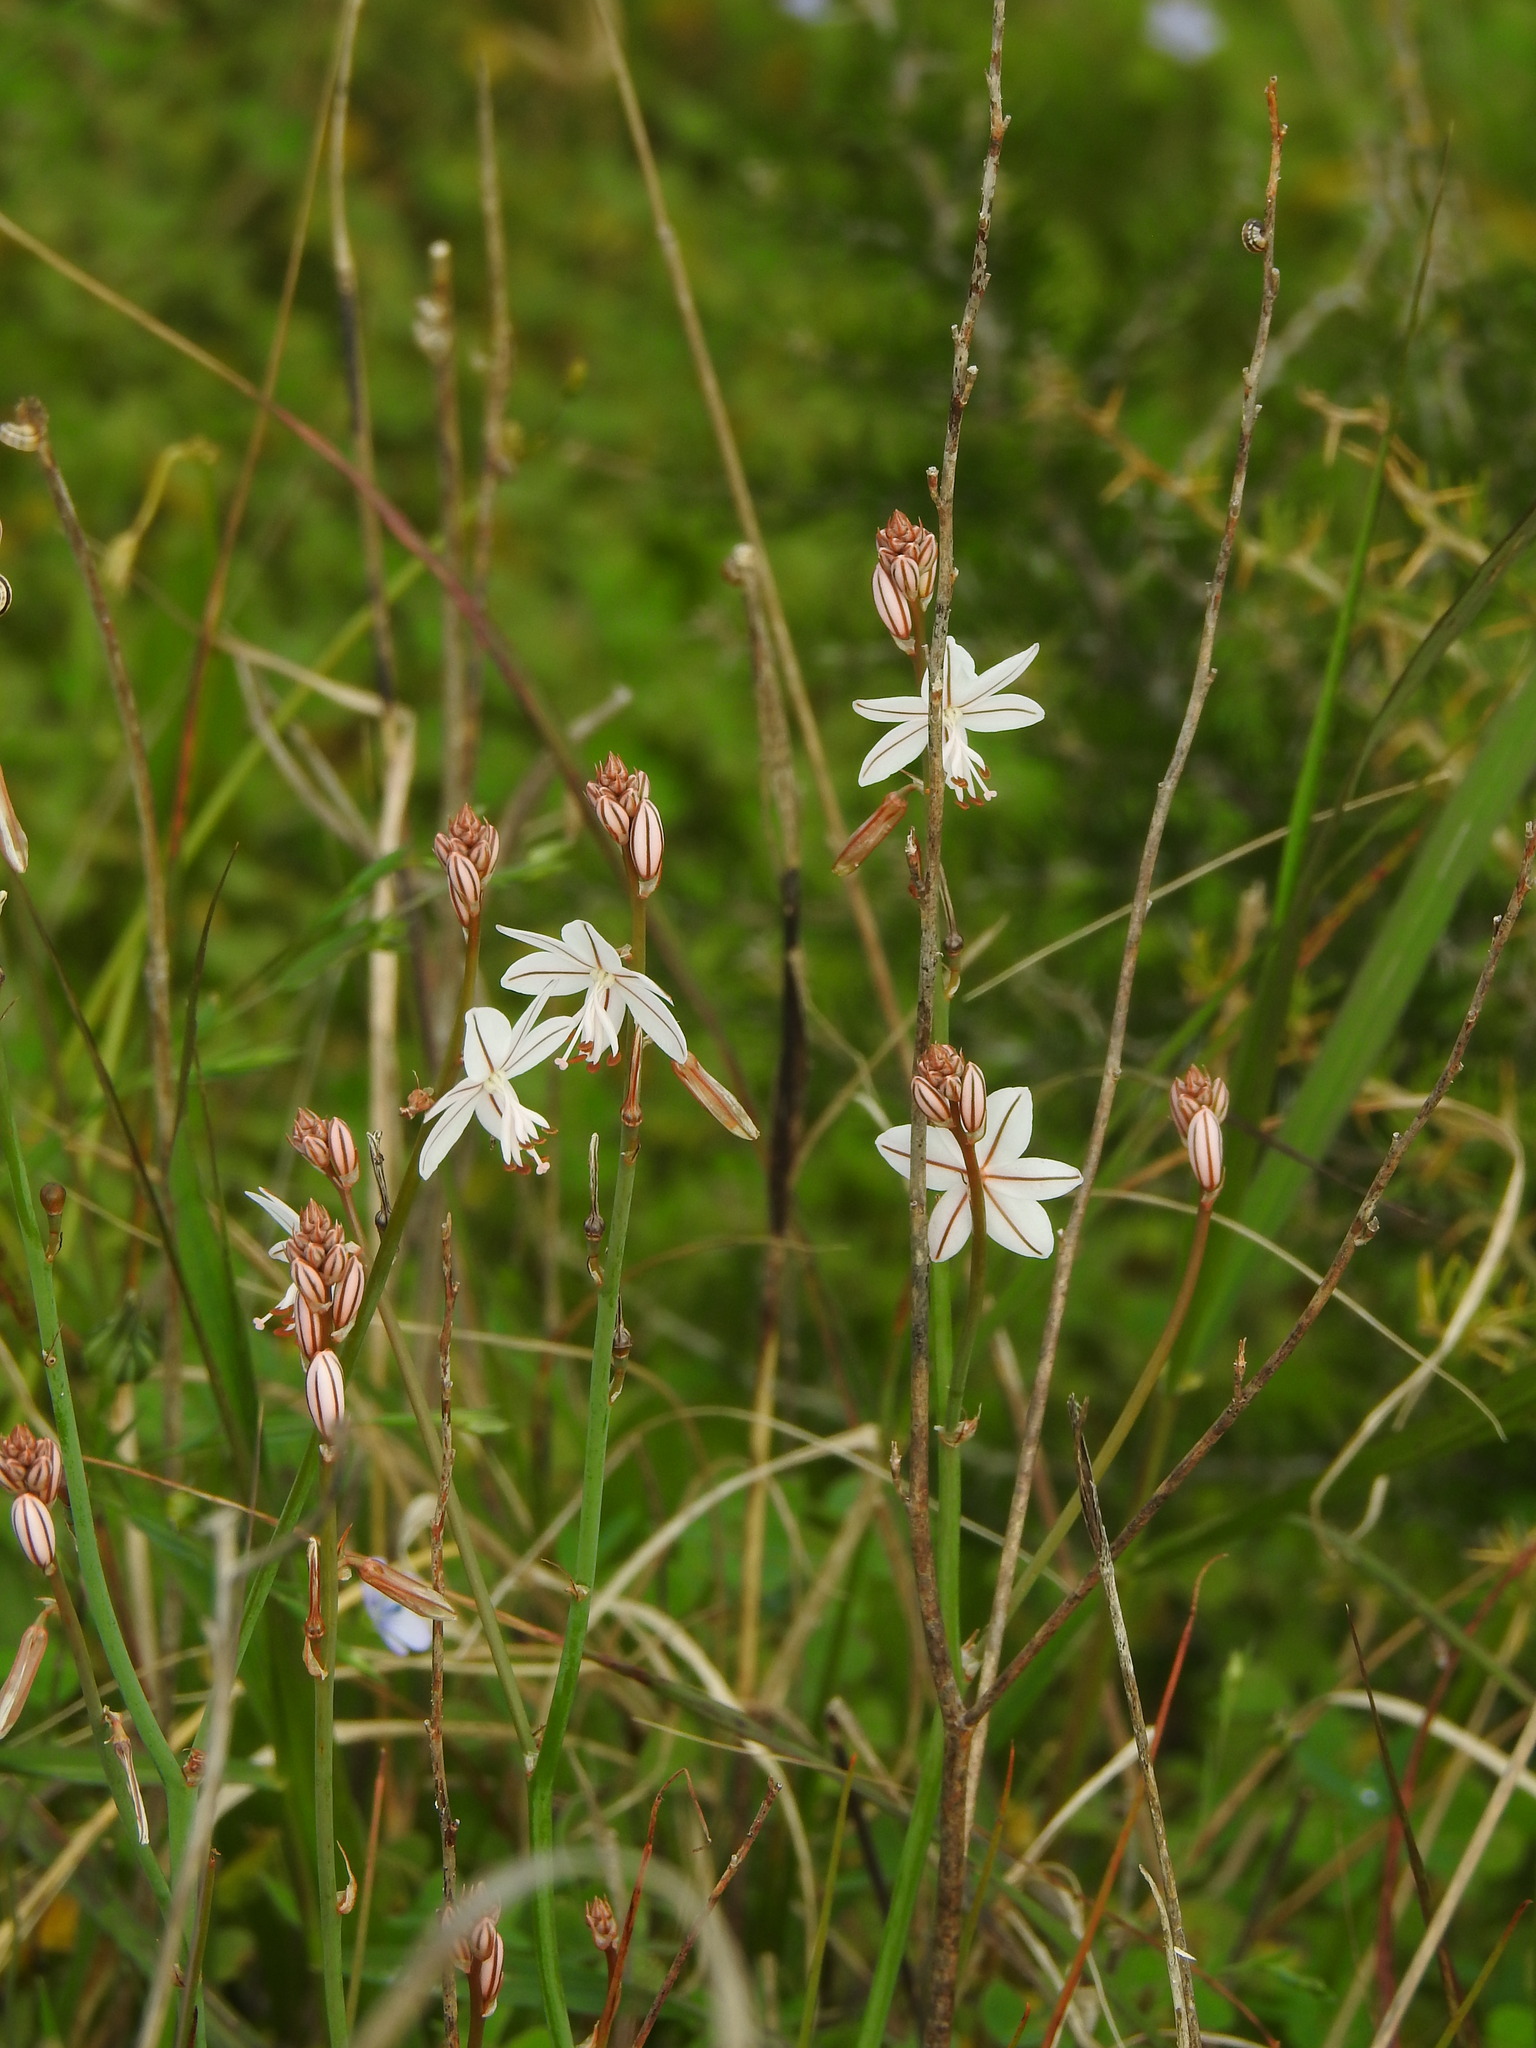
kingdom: Plantae
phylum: Tracheophyta
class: Liliopsida
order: Asparagales
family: Asphodelaceae
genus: Asphodelus
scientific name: Asphodelus fistulosus
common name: Onionweed
